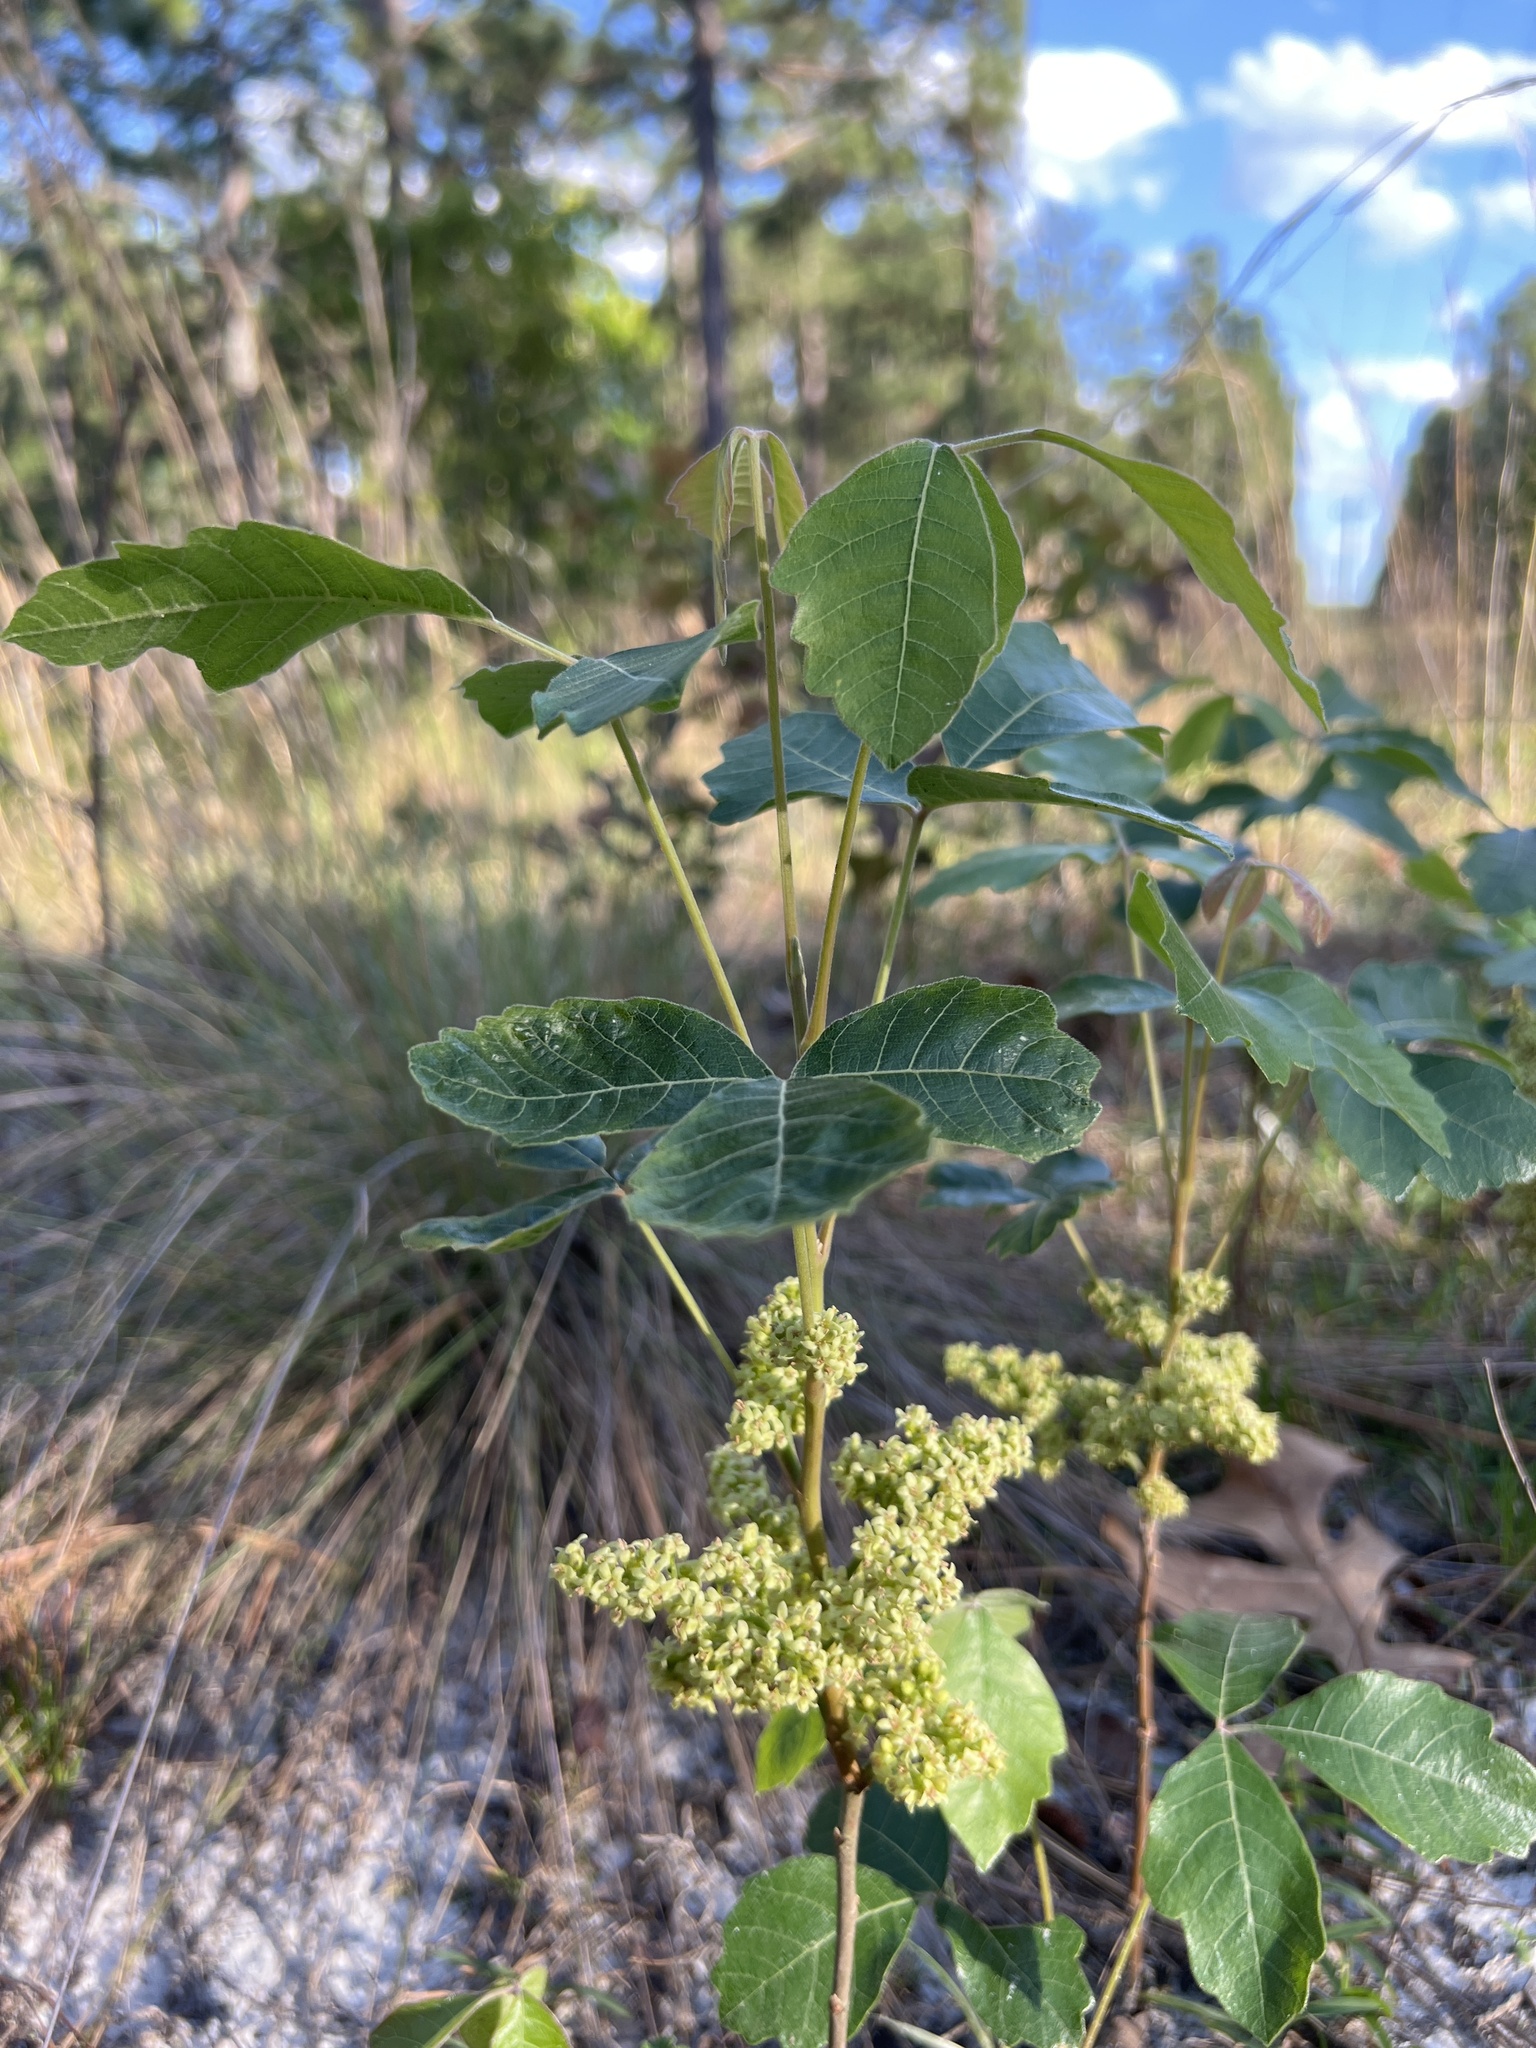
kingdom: Plantae
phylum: Tracheophyta
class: Magnoliopsida
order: Sapindales
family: Anacardiaceae
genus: Toxicodendron
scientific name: Toxicodendron pubescens
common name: Eastern poison-oak
